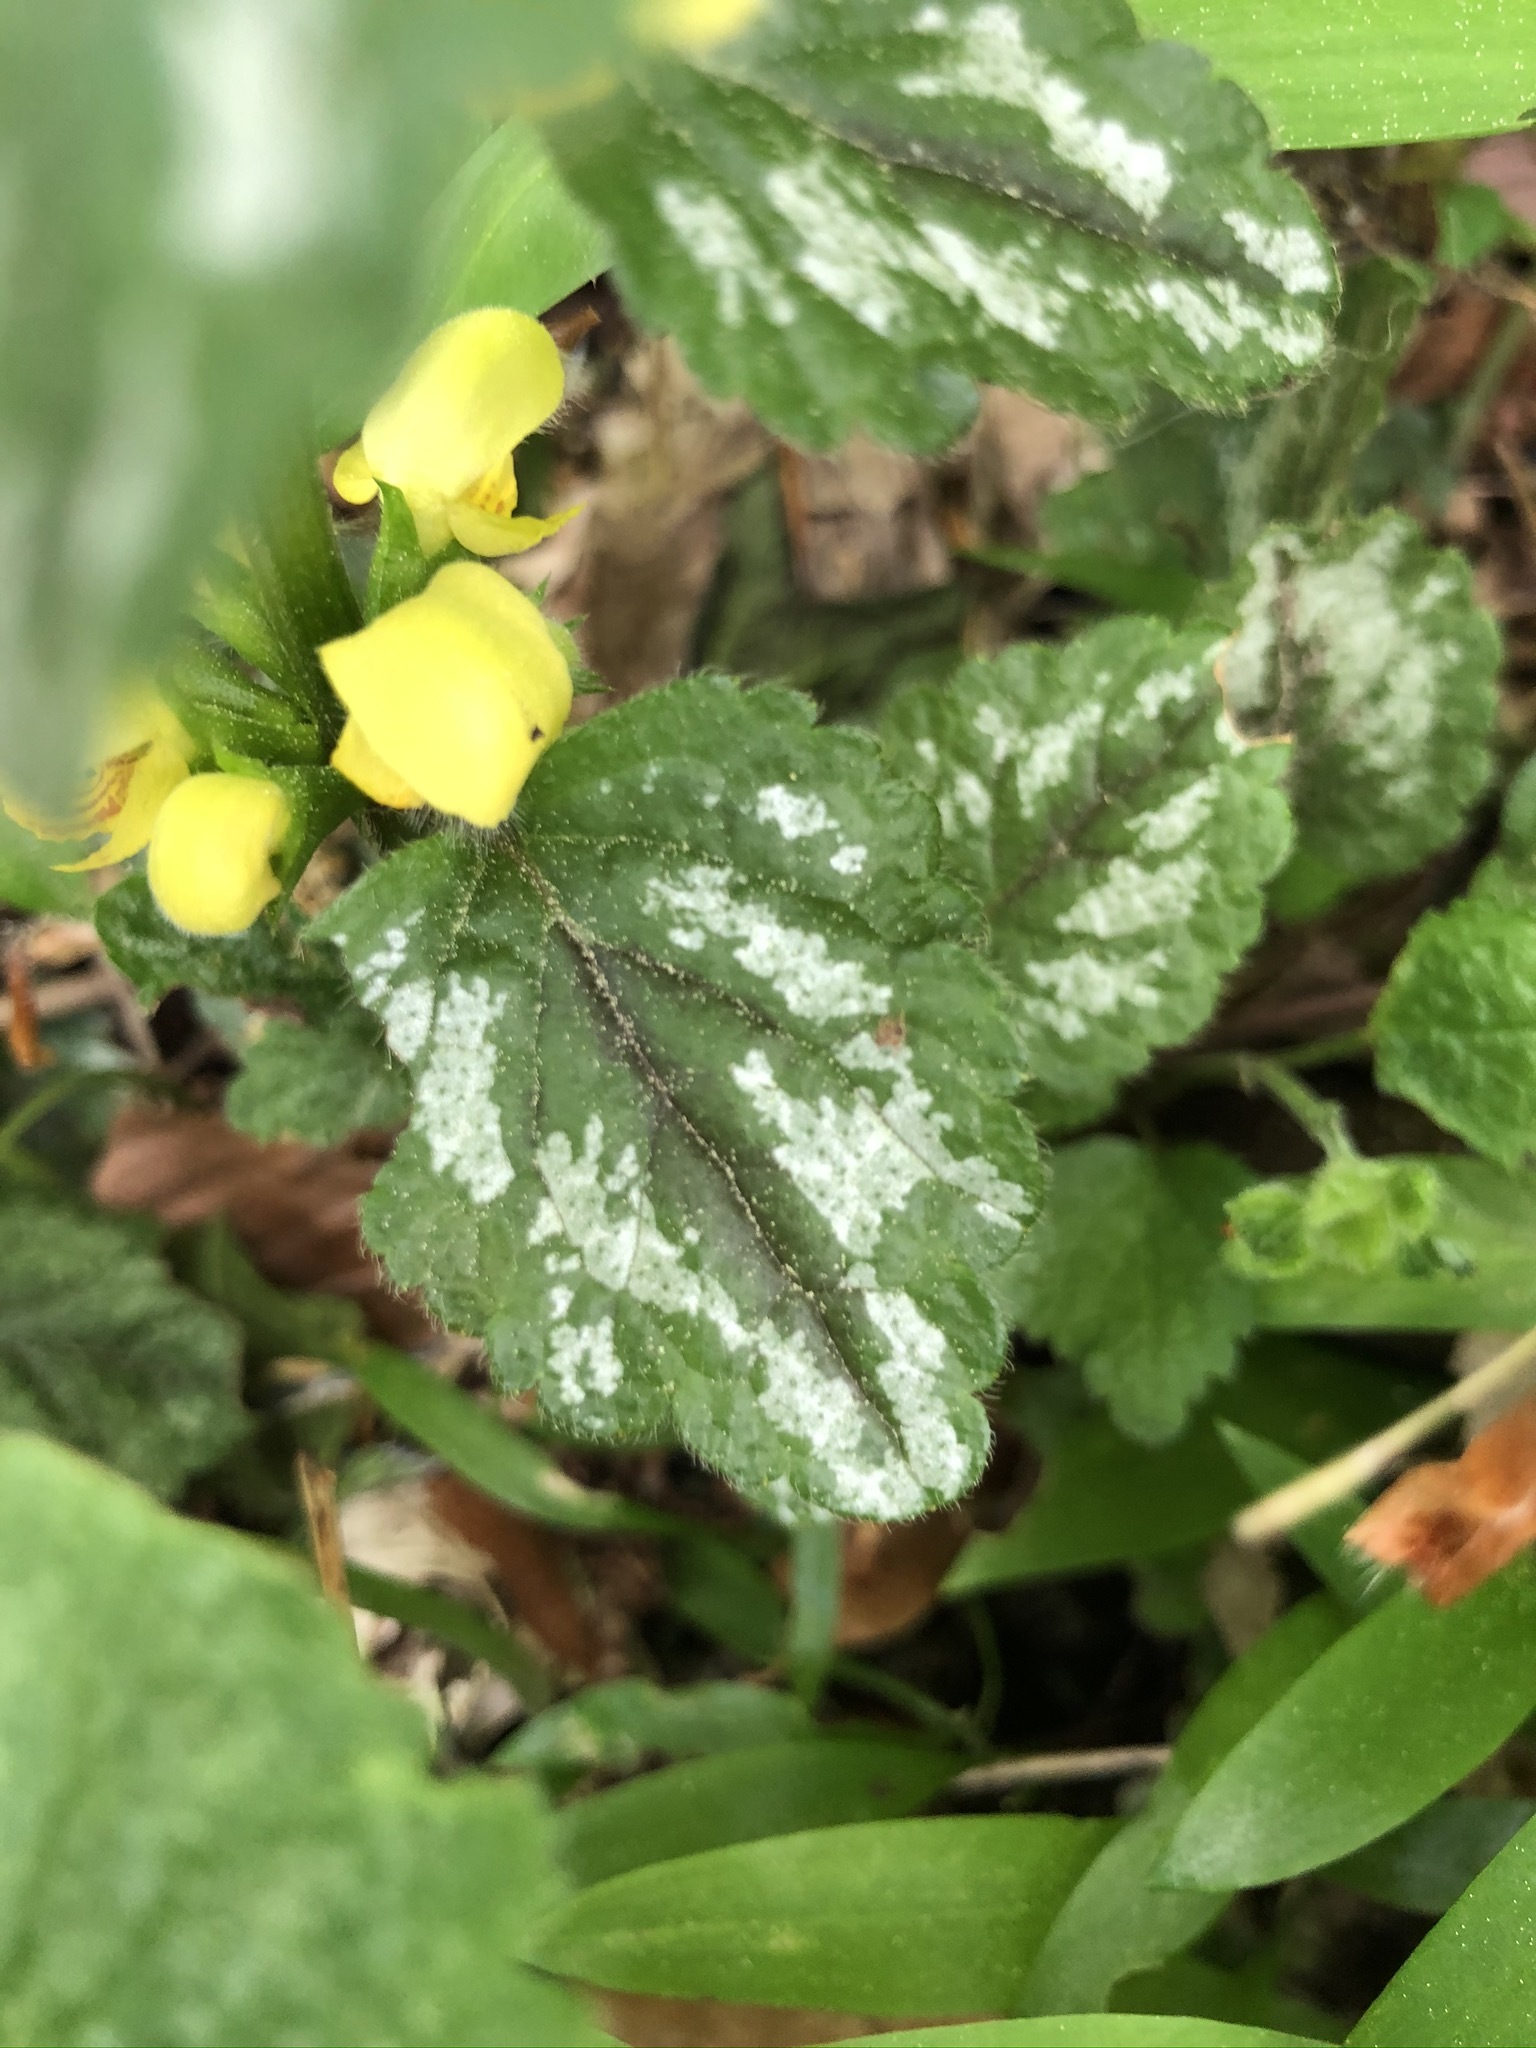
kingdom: Plantae
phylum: Tracheophyta
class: Magnoliopsida
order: Lamiales
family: Lamiaceae
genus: Lamium
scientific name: Lamium galeobdolon
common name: Yellow archangel
